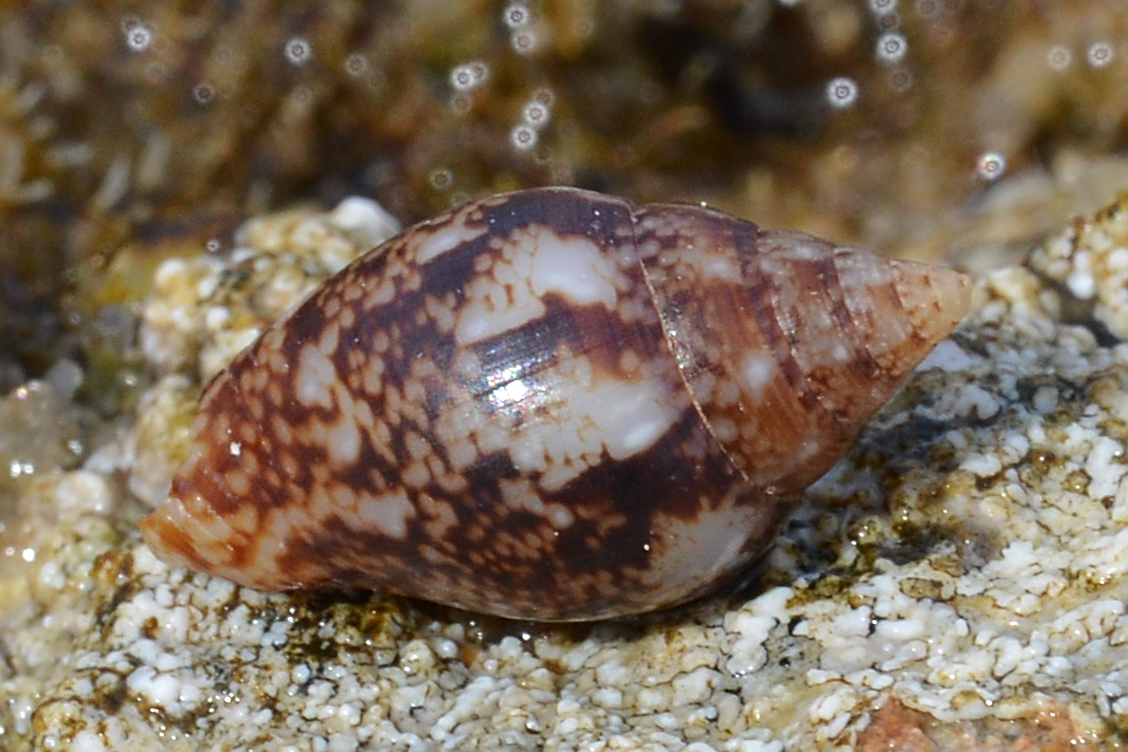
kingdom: Animalia
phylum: Mollusca
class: Gastropoda
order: Neogastropoda
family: Columbellidae
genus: Columbella
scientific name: Columbella rustica
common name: Rustic dove shell
